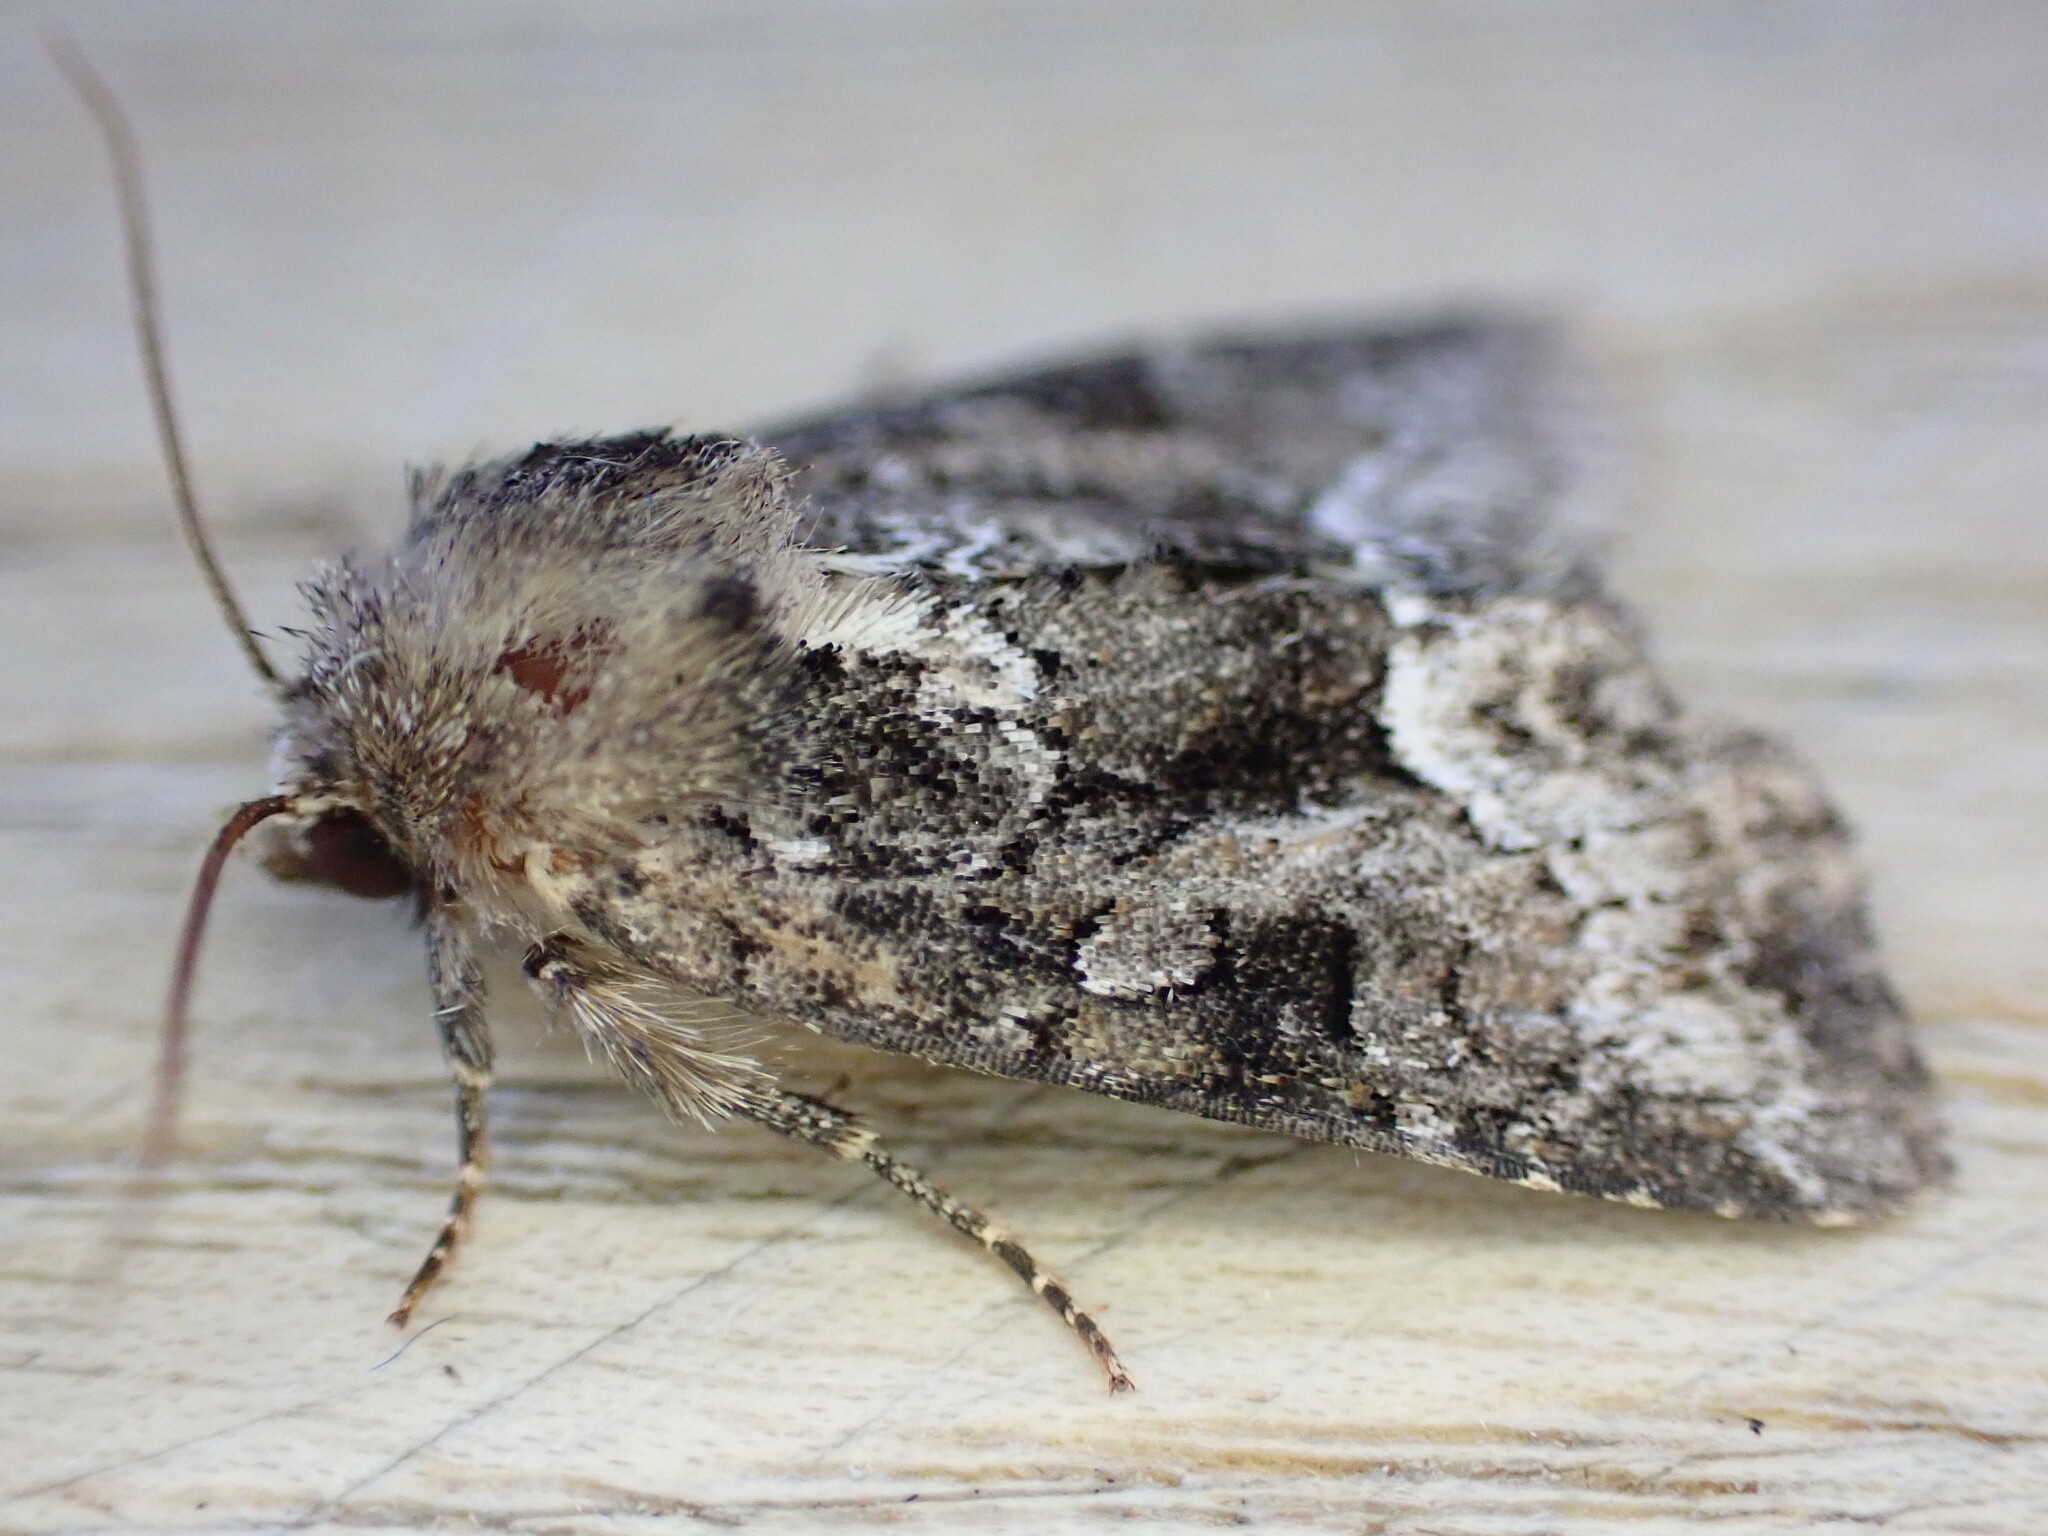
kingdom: Animalia
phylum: Arthropoda
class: Insecta
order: Lepidoptera
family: Noctuidae
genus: Oligia
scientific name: Oligia strigilis
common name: Marbled minor
